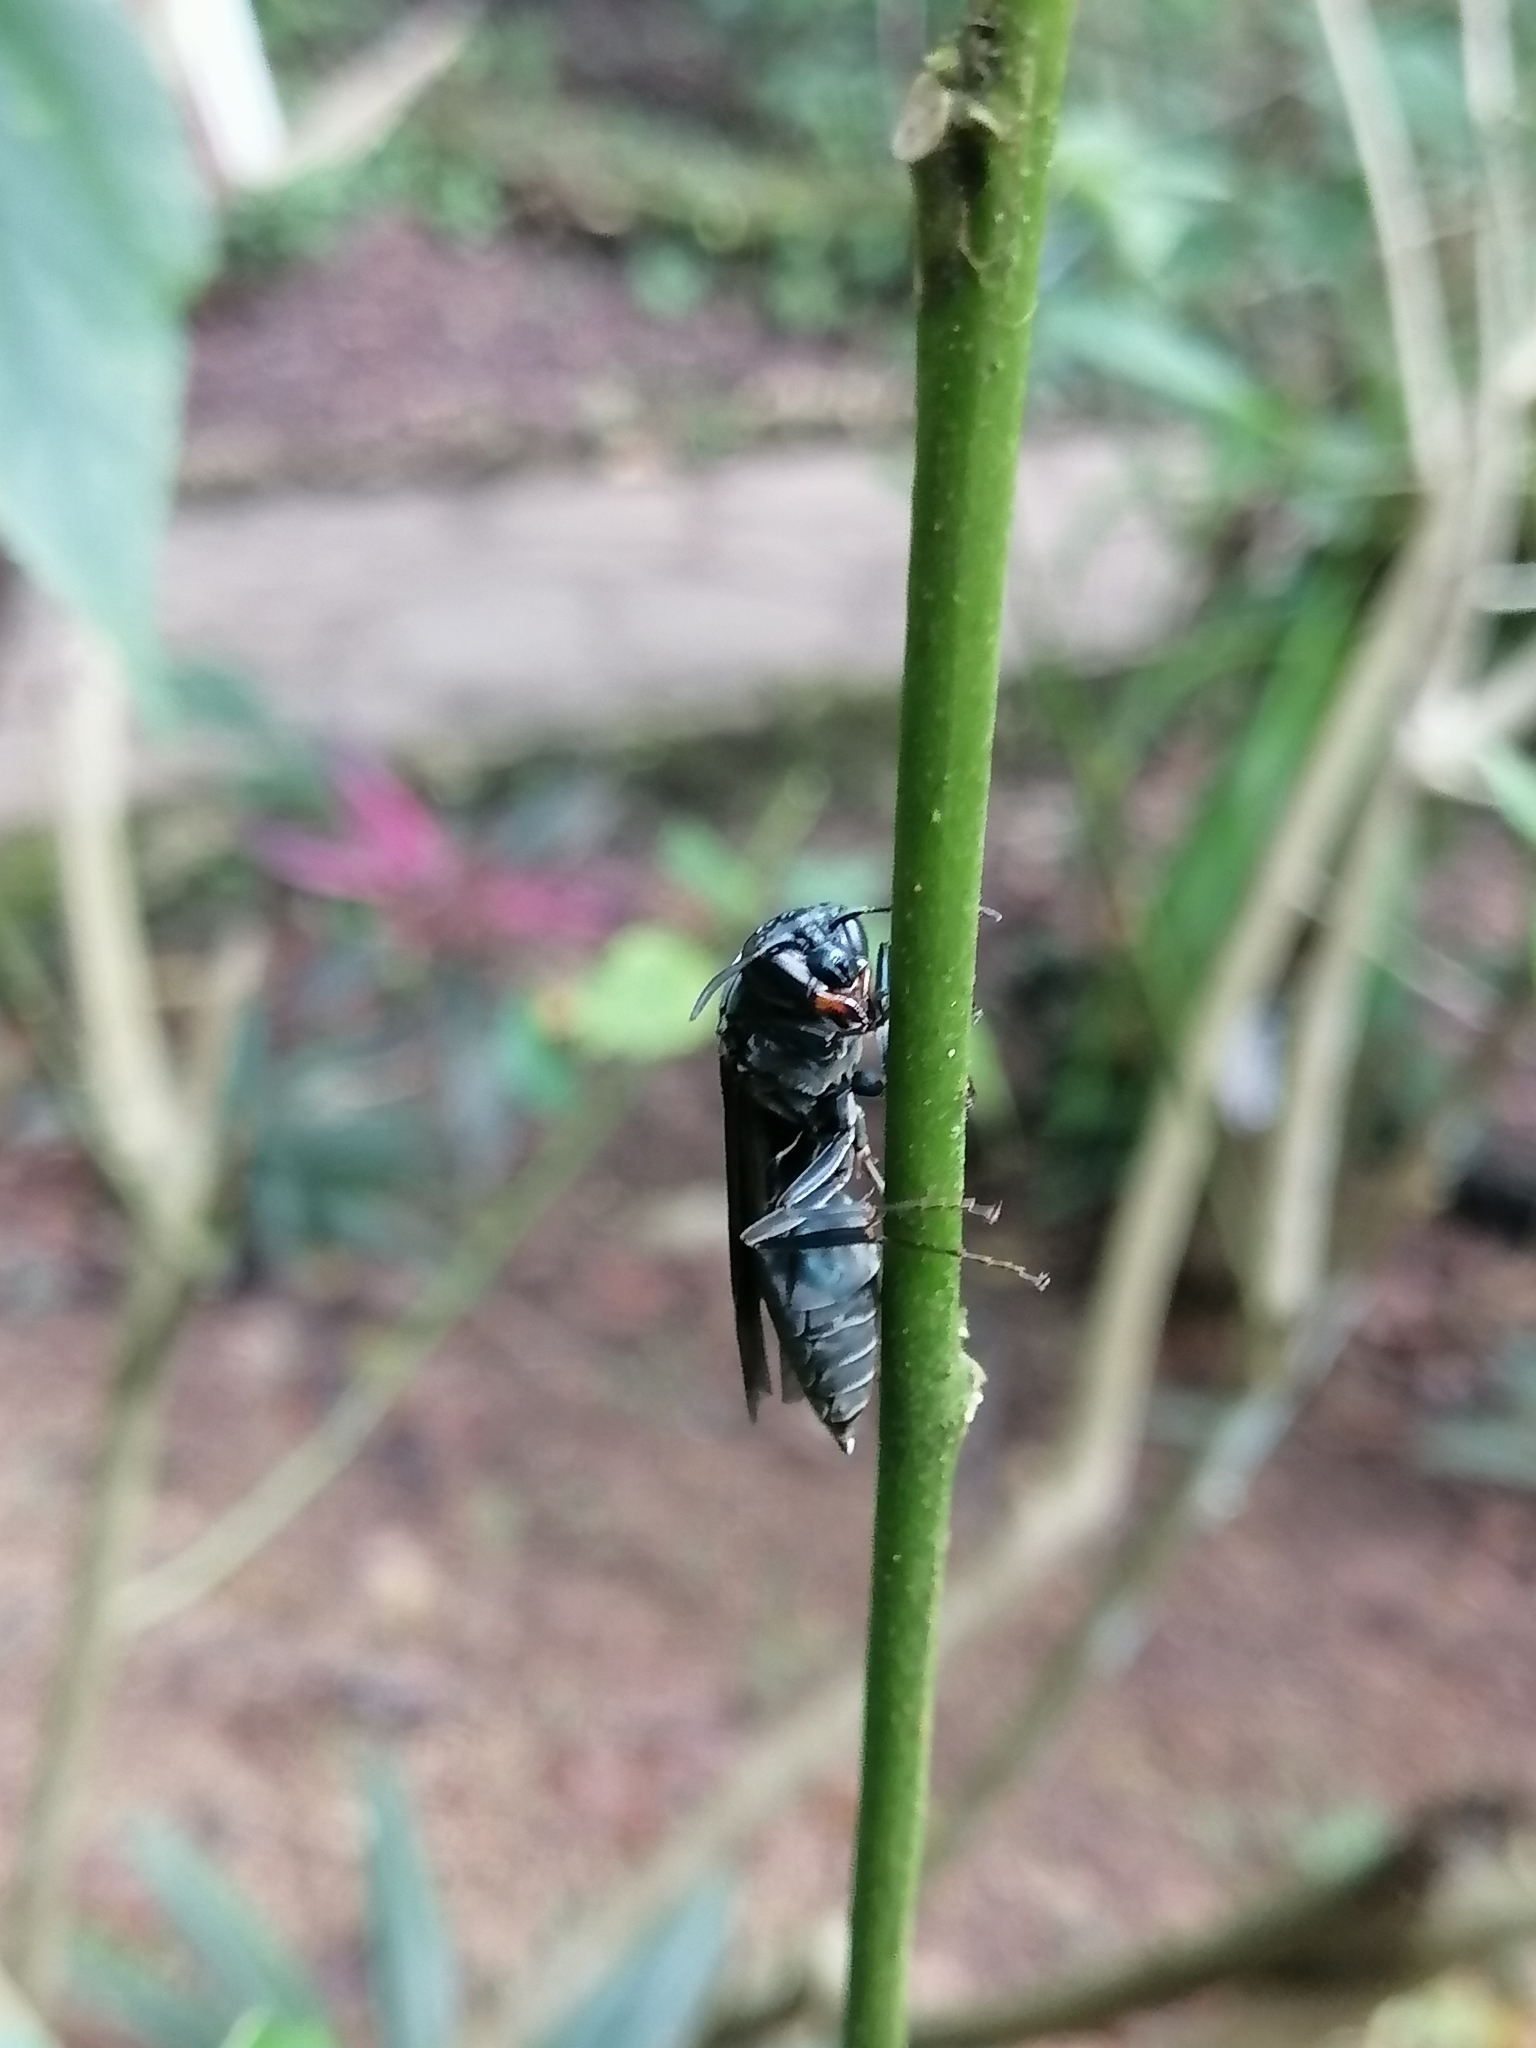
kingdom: Animalia
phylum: Arthropoda
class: Insecta
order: Hymenoptera
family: Vespidae
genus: Synoeca
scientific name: Synoeca septentrionalis
